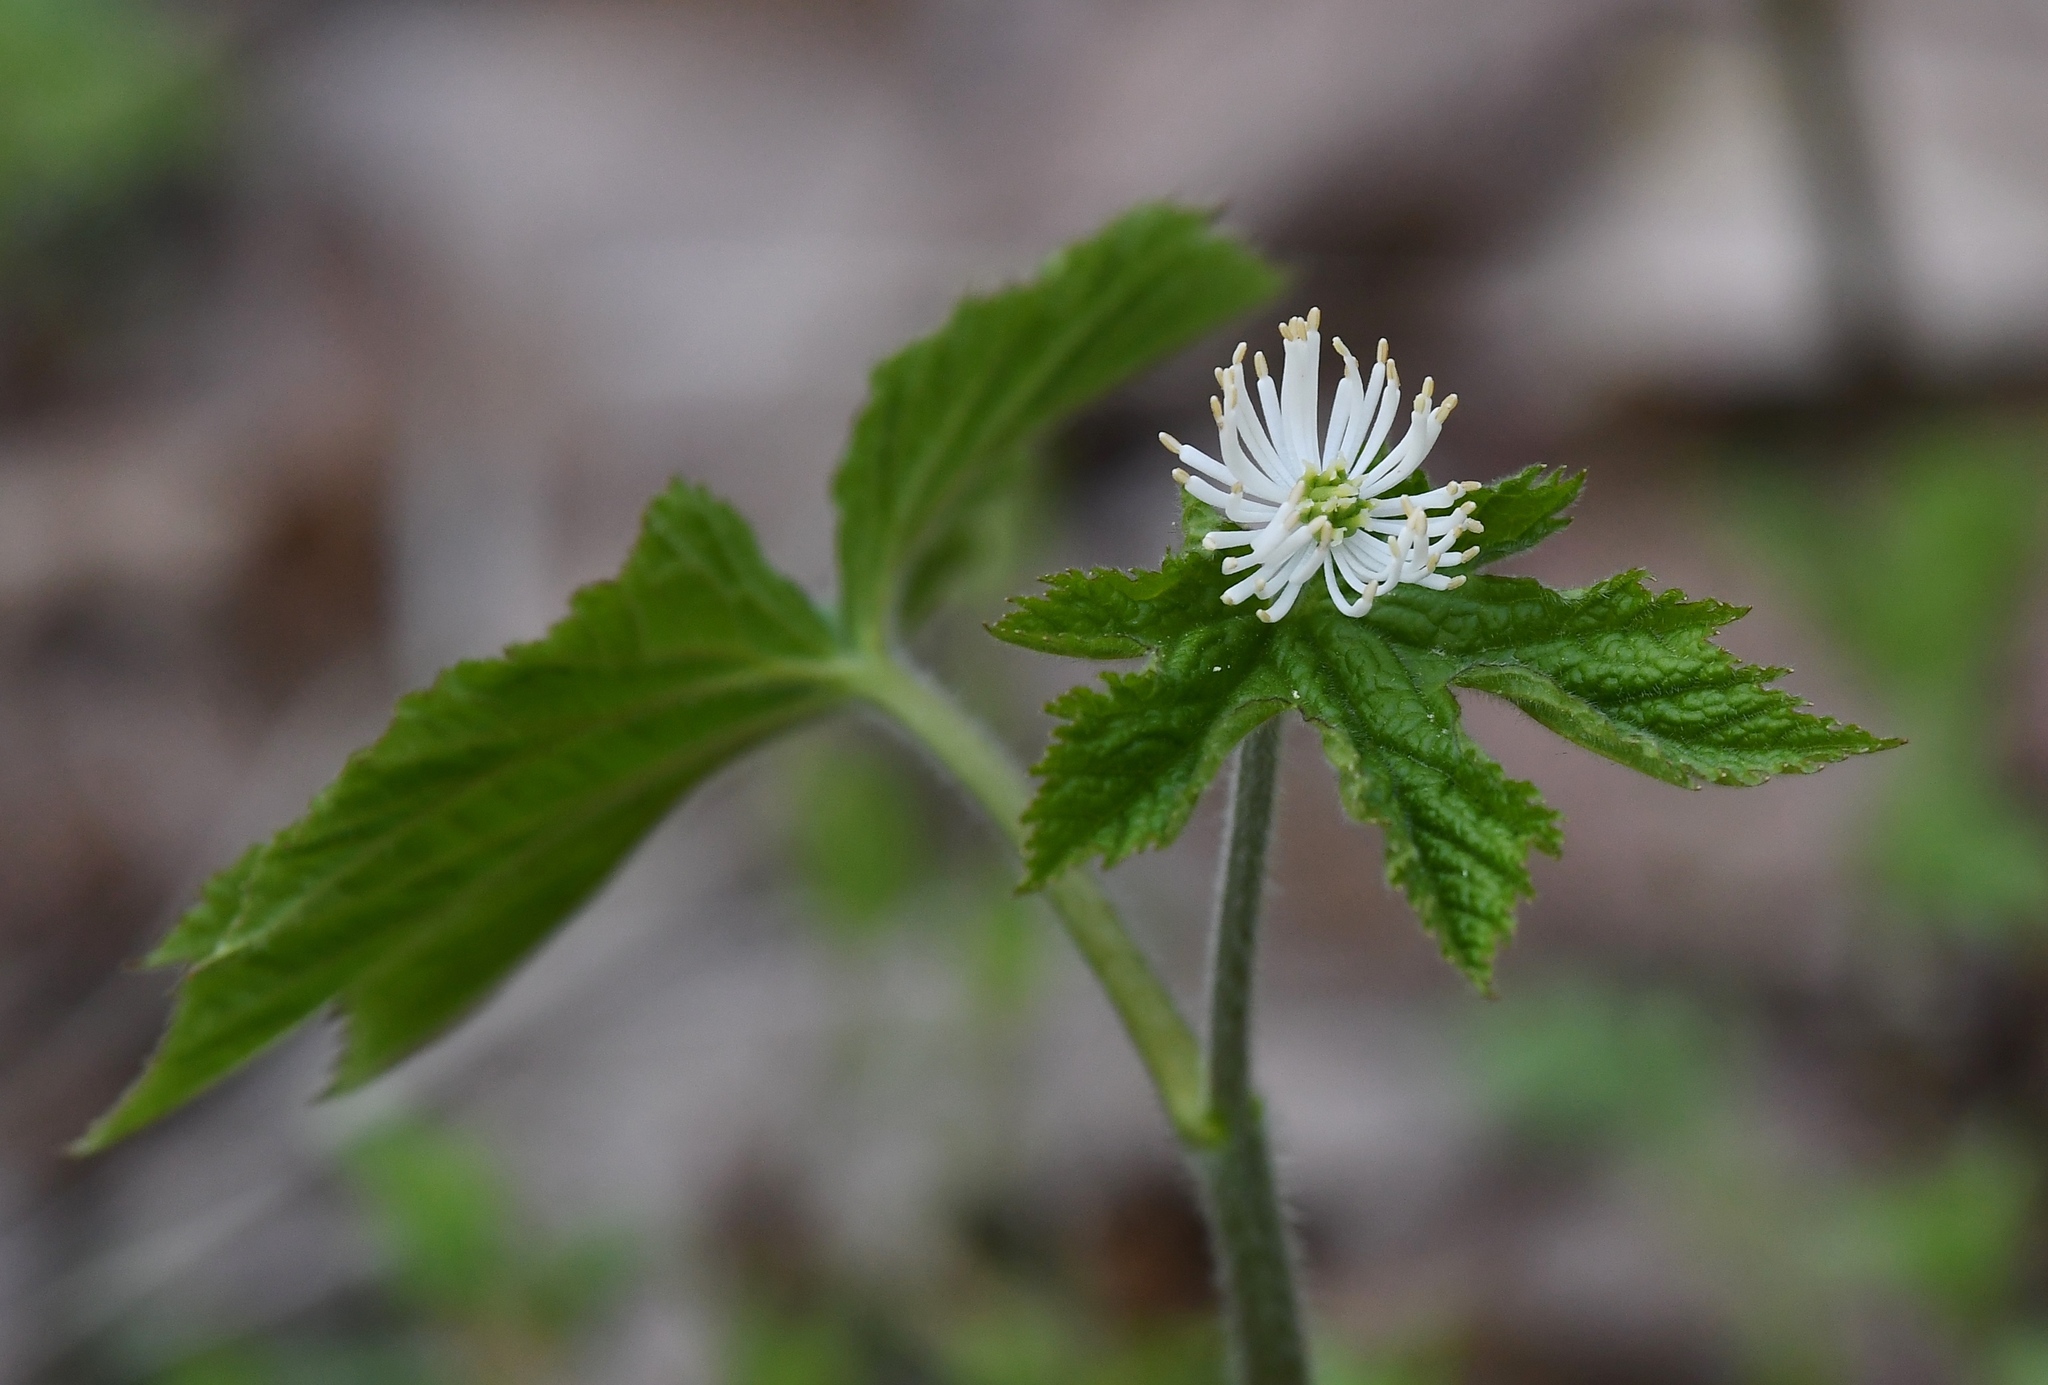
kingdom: Plantae
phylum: Tracheophyta
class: Magnoliopsida
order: Ranunculales
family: Ranunculaceae
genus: Hydrastis
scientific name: Hydrastis canadensis
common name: Goldenseal
